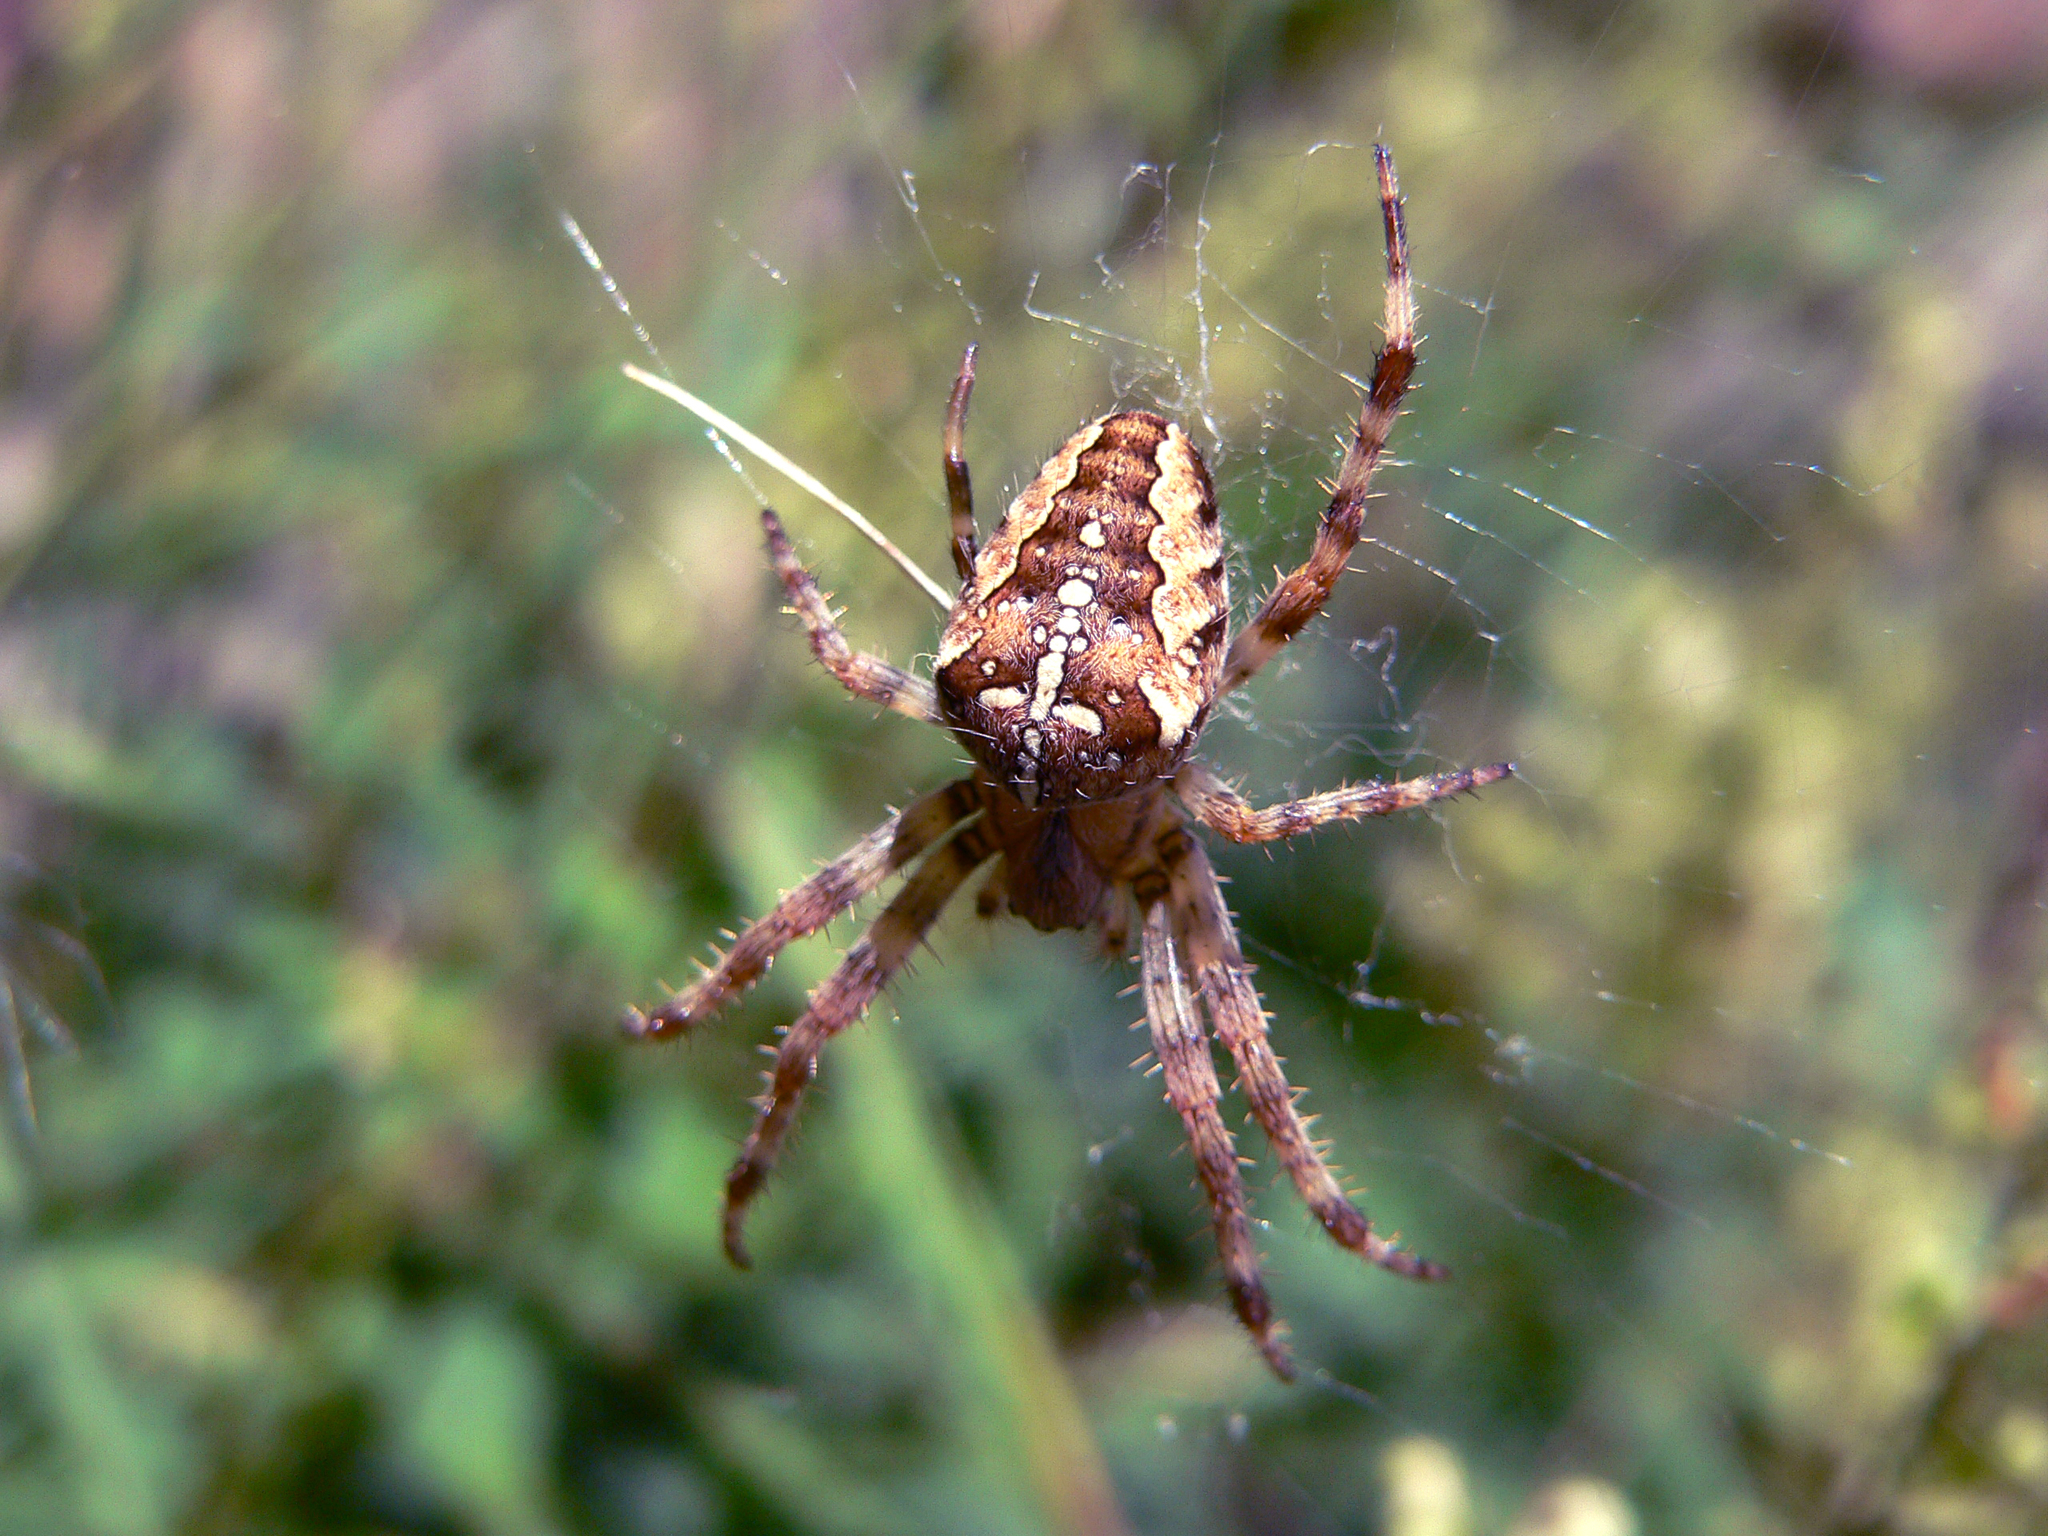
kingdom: Animalia
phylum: Arthropoda
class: Arachnida
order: Araneae
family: Araneidae
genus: Araneus
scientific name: Araneus diadematus
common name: Cross orbweaver
